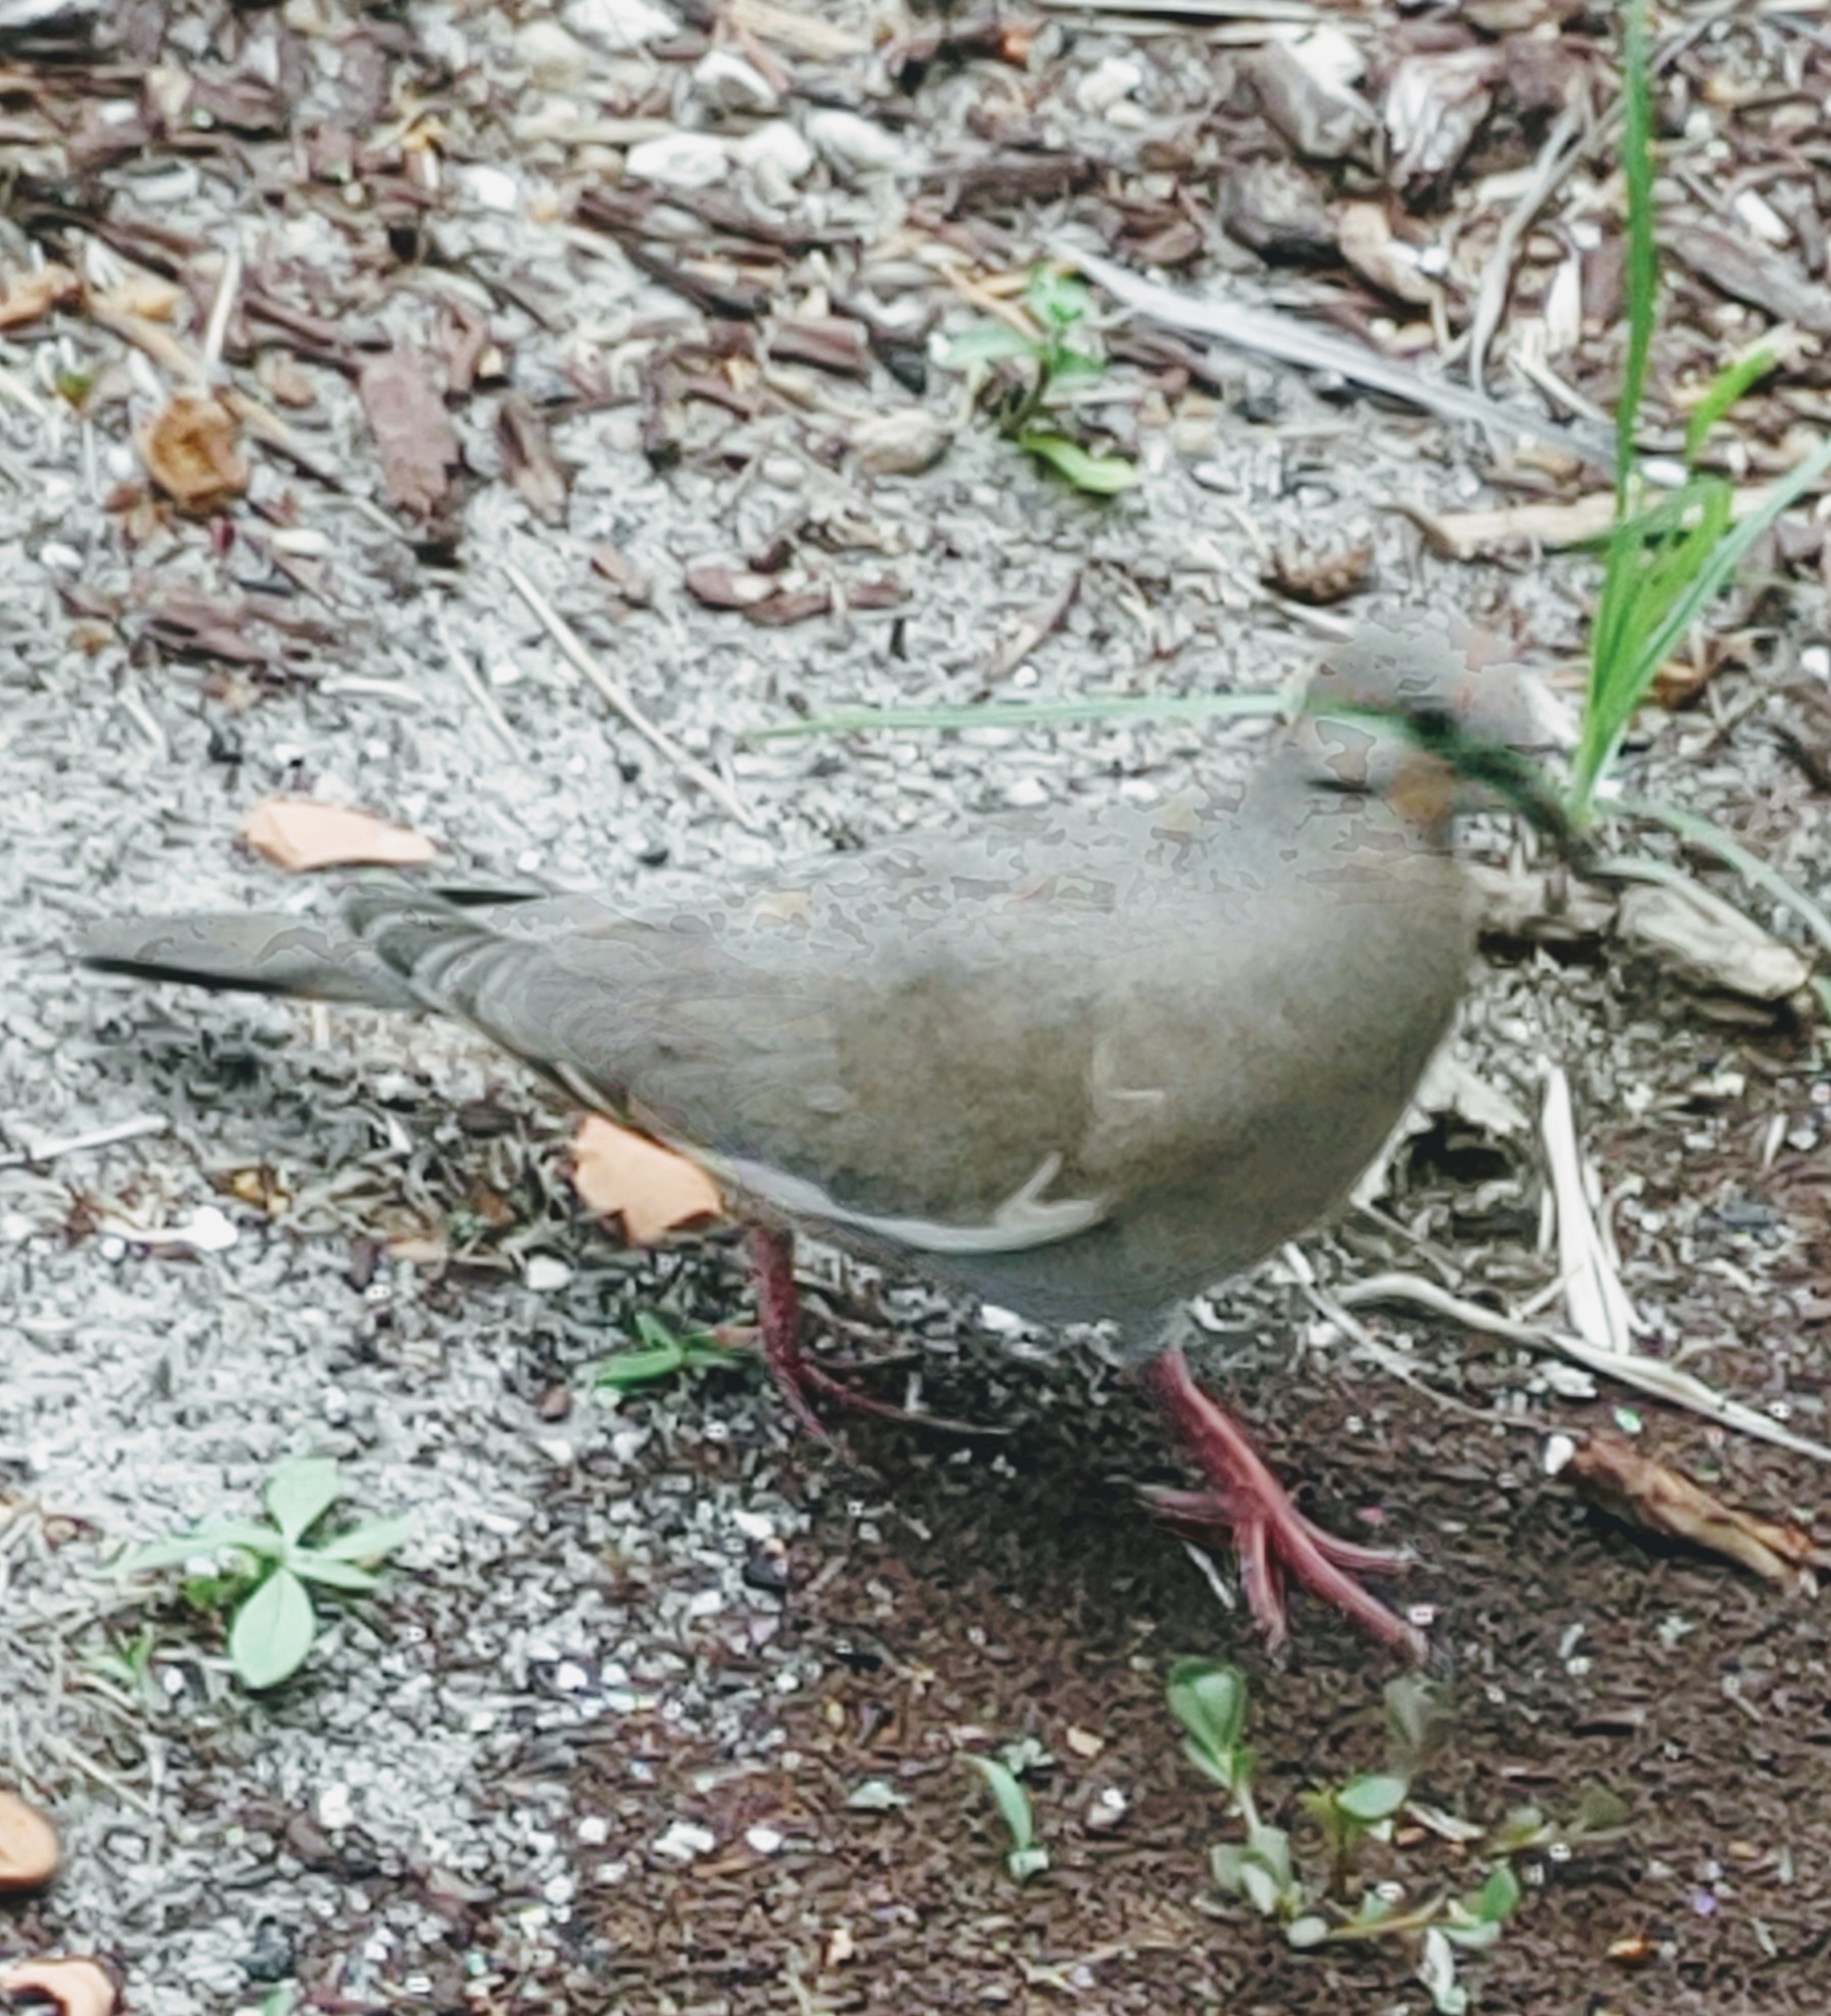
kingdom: Animalia
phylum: Chordata
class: Aves
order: Columbiformes
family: Columbidae
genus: Zenaida
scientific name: Zenaida asiatica
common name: White-winged dove
